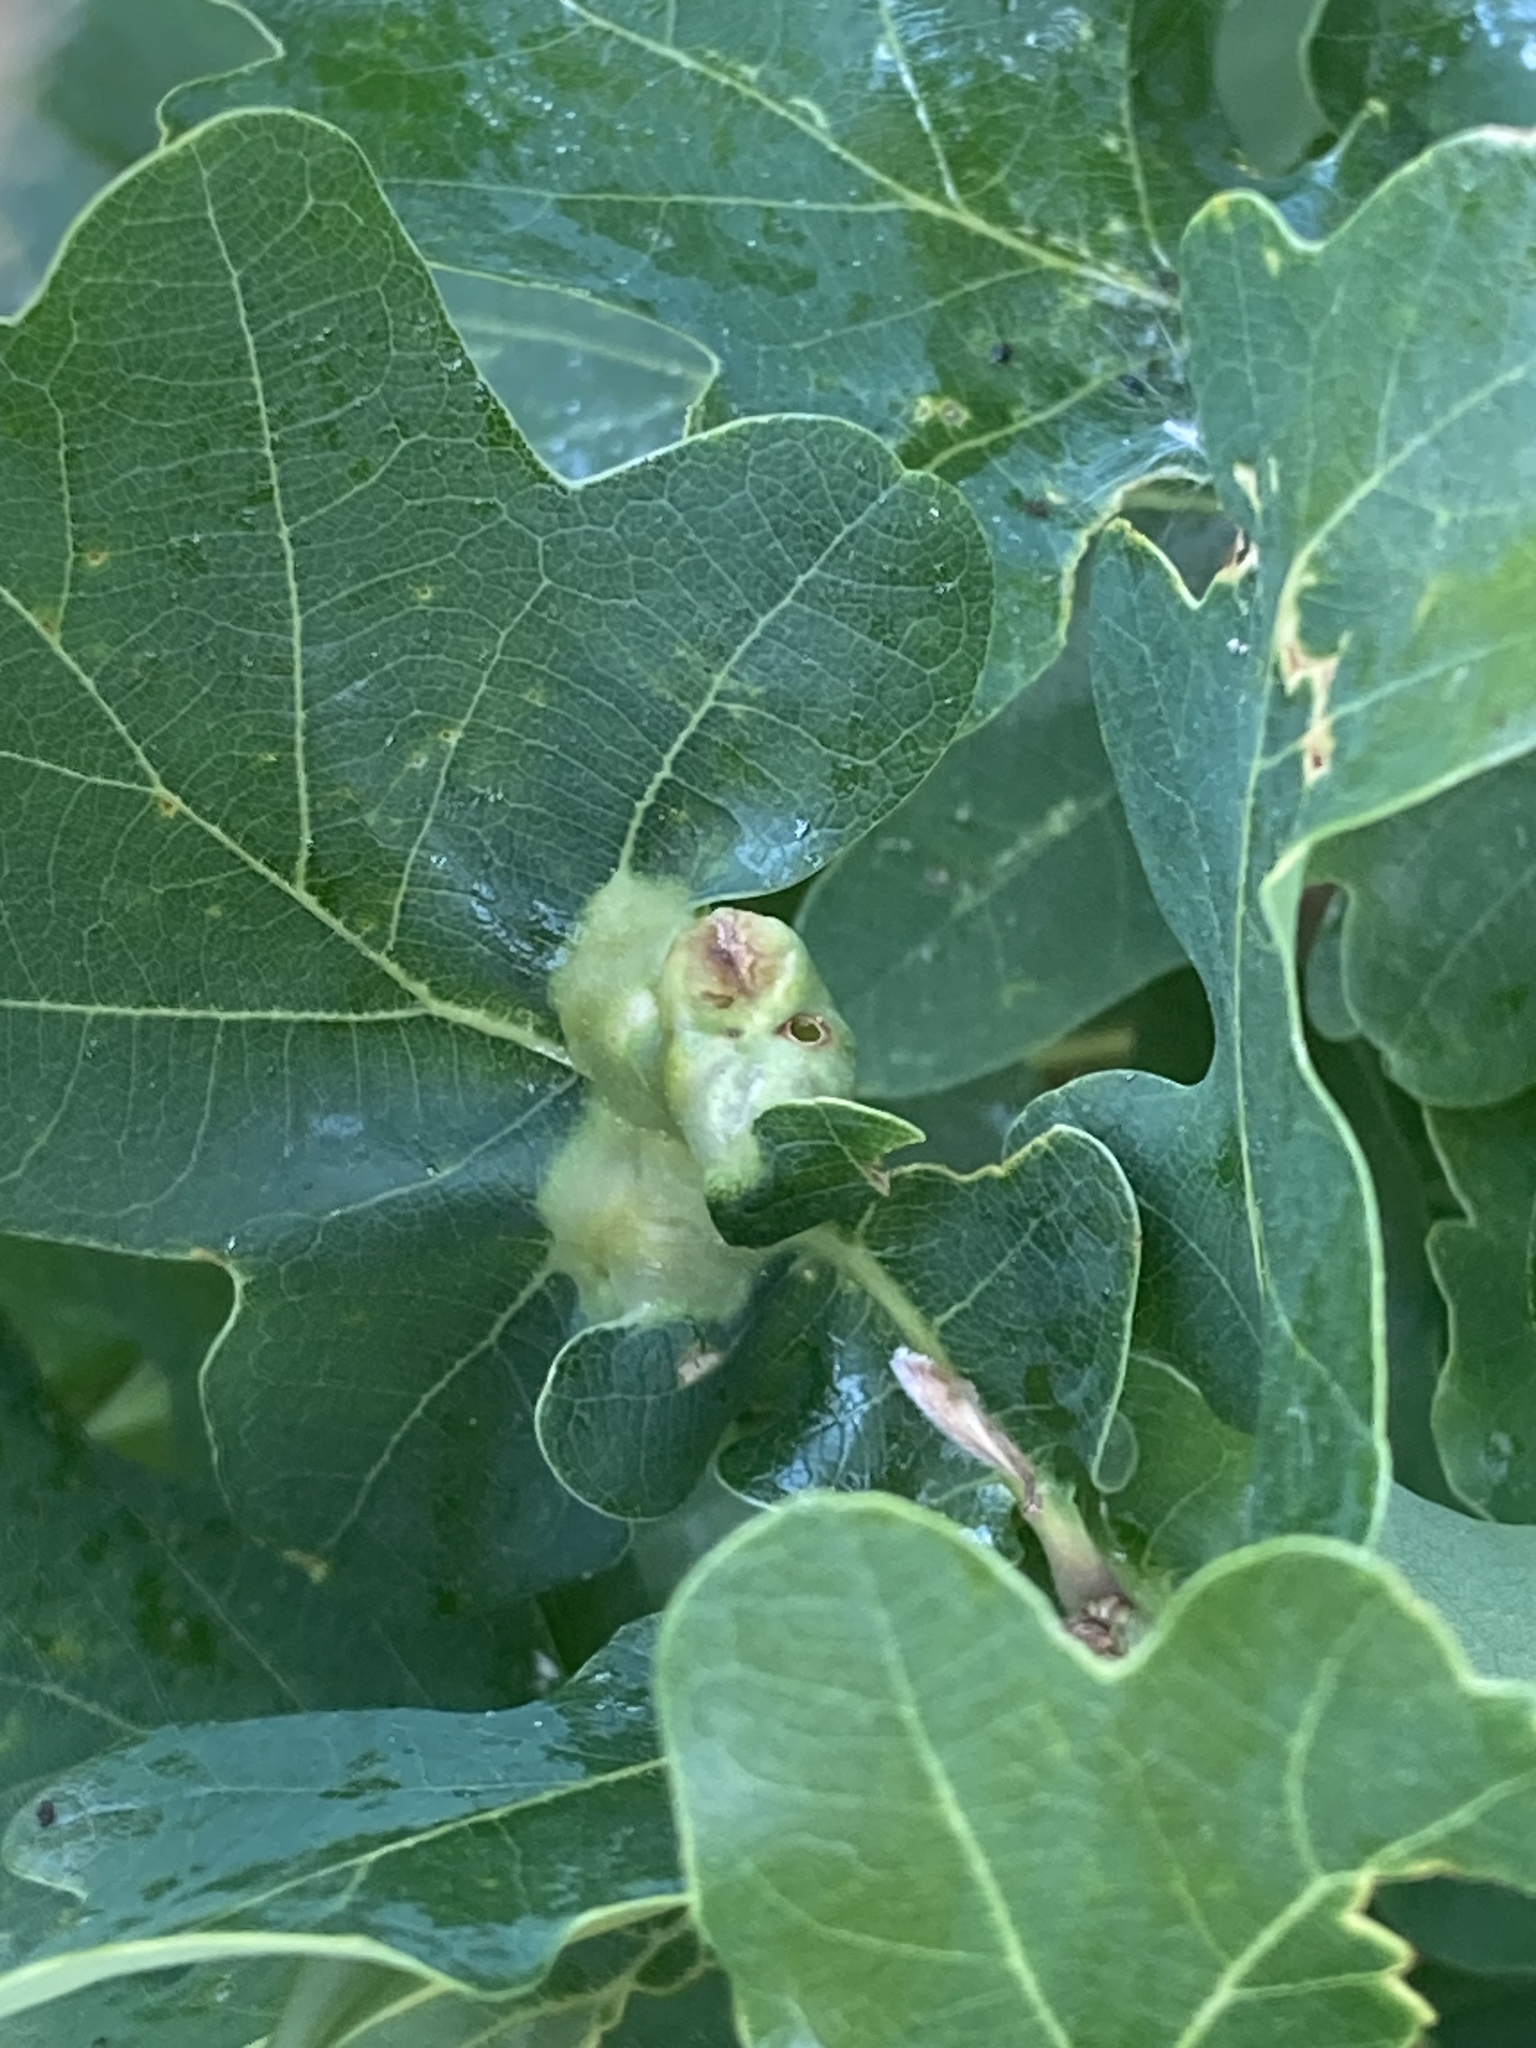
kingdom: Animalia
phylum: Arthropoda
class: Insecta
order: Hymenoptera
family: Cynipidae
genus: Andricus
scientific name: Andricus curvator
